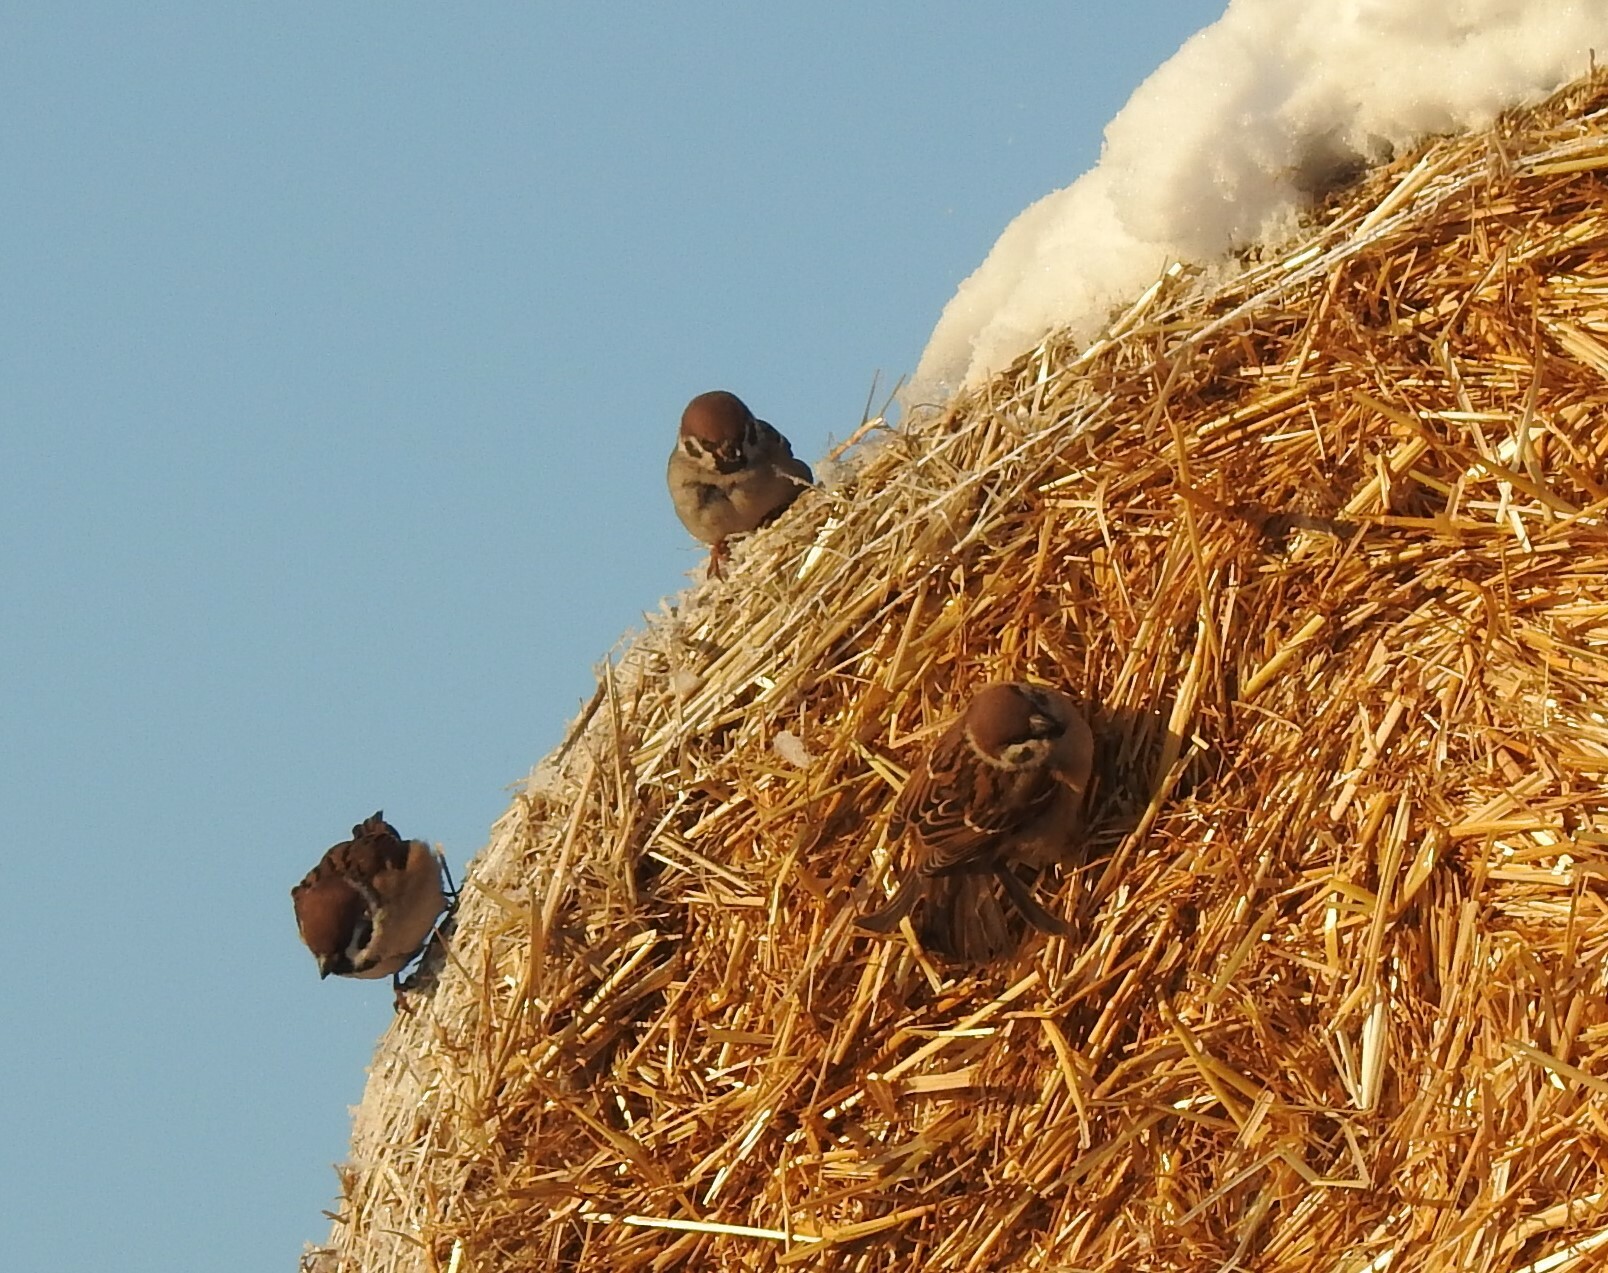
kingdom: Animalia
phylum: Chordata
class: Aves
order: Passeriformes
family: Passeridae
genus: Passer
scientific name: Passer montanus
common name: Eurasian tree sparrow
